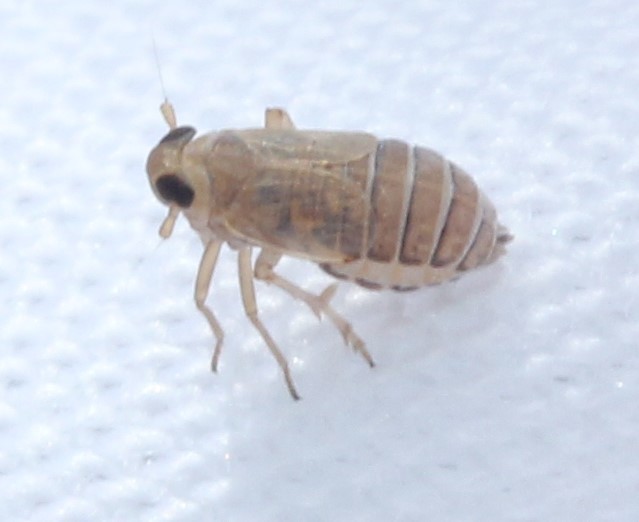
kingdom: Animalia
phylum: Arthropoda
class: Insecta
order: Hemiptera
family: Delphacidae
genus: Kosswigianella
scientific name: Kosswigianella lutulenta
